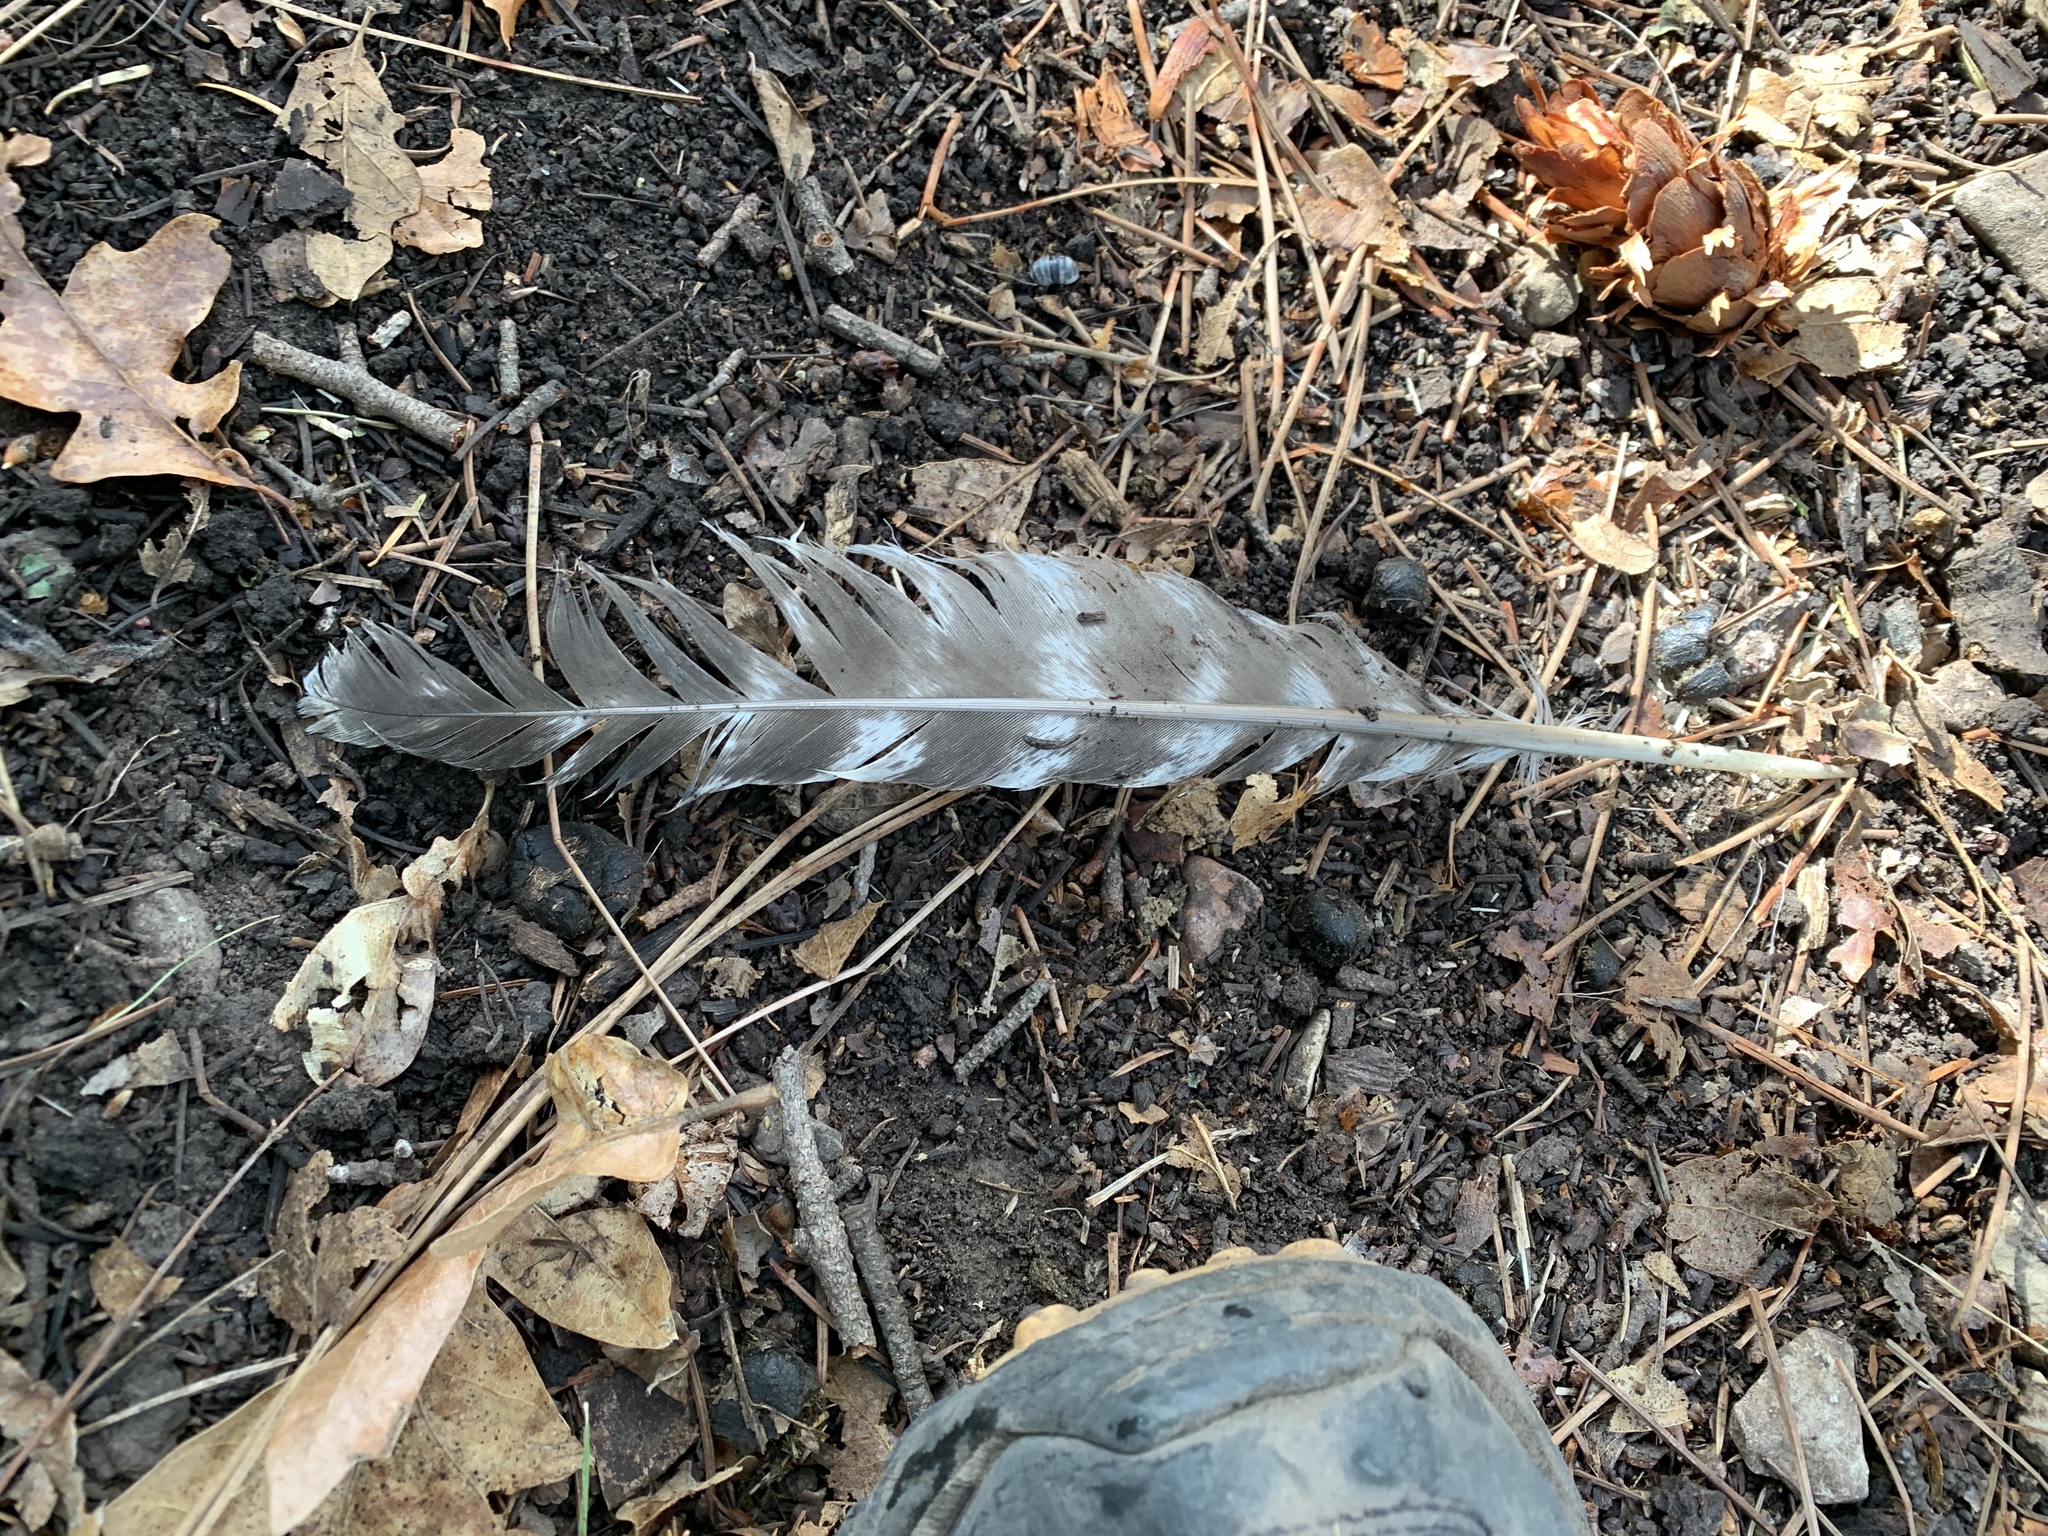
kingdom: Animalia
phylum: Chordata
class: Aves
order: Galliformes
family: Phasianidae
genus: Meleagris
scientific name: Meleagris gallopavo
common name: Wild turkey
